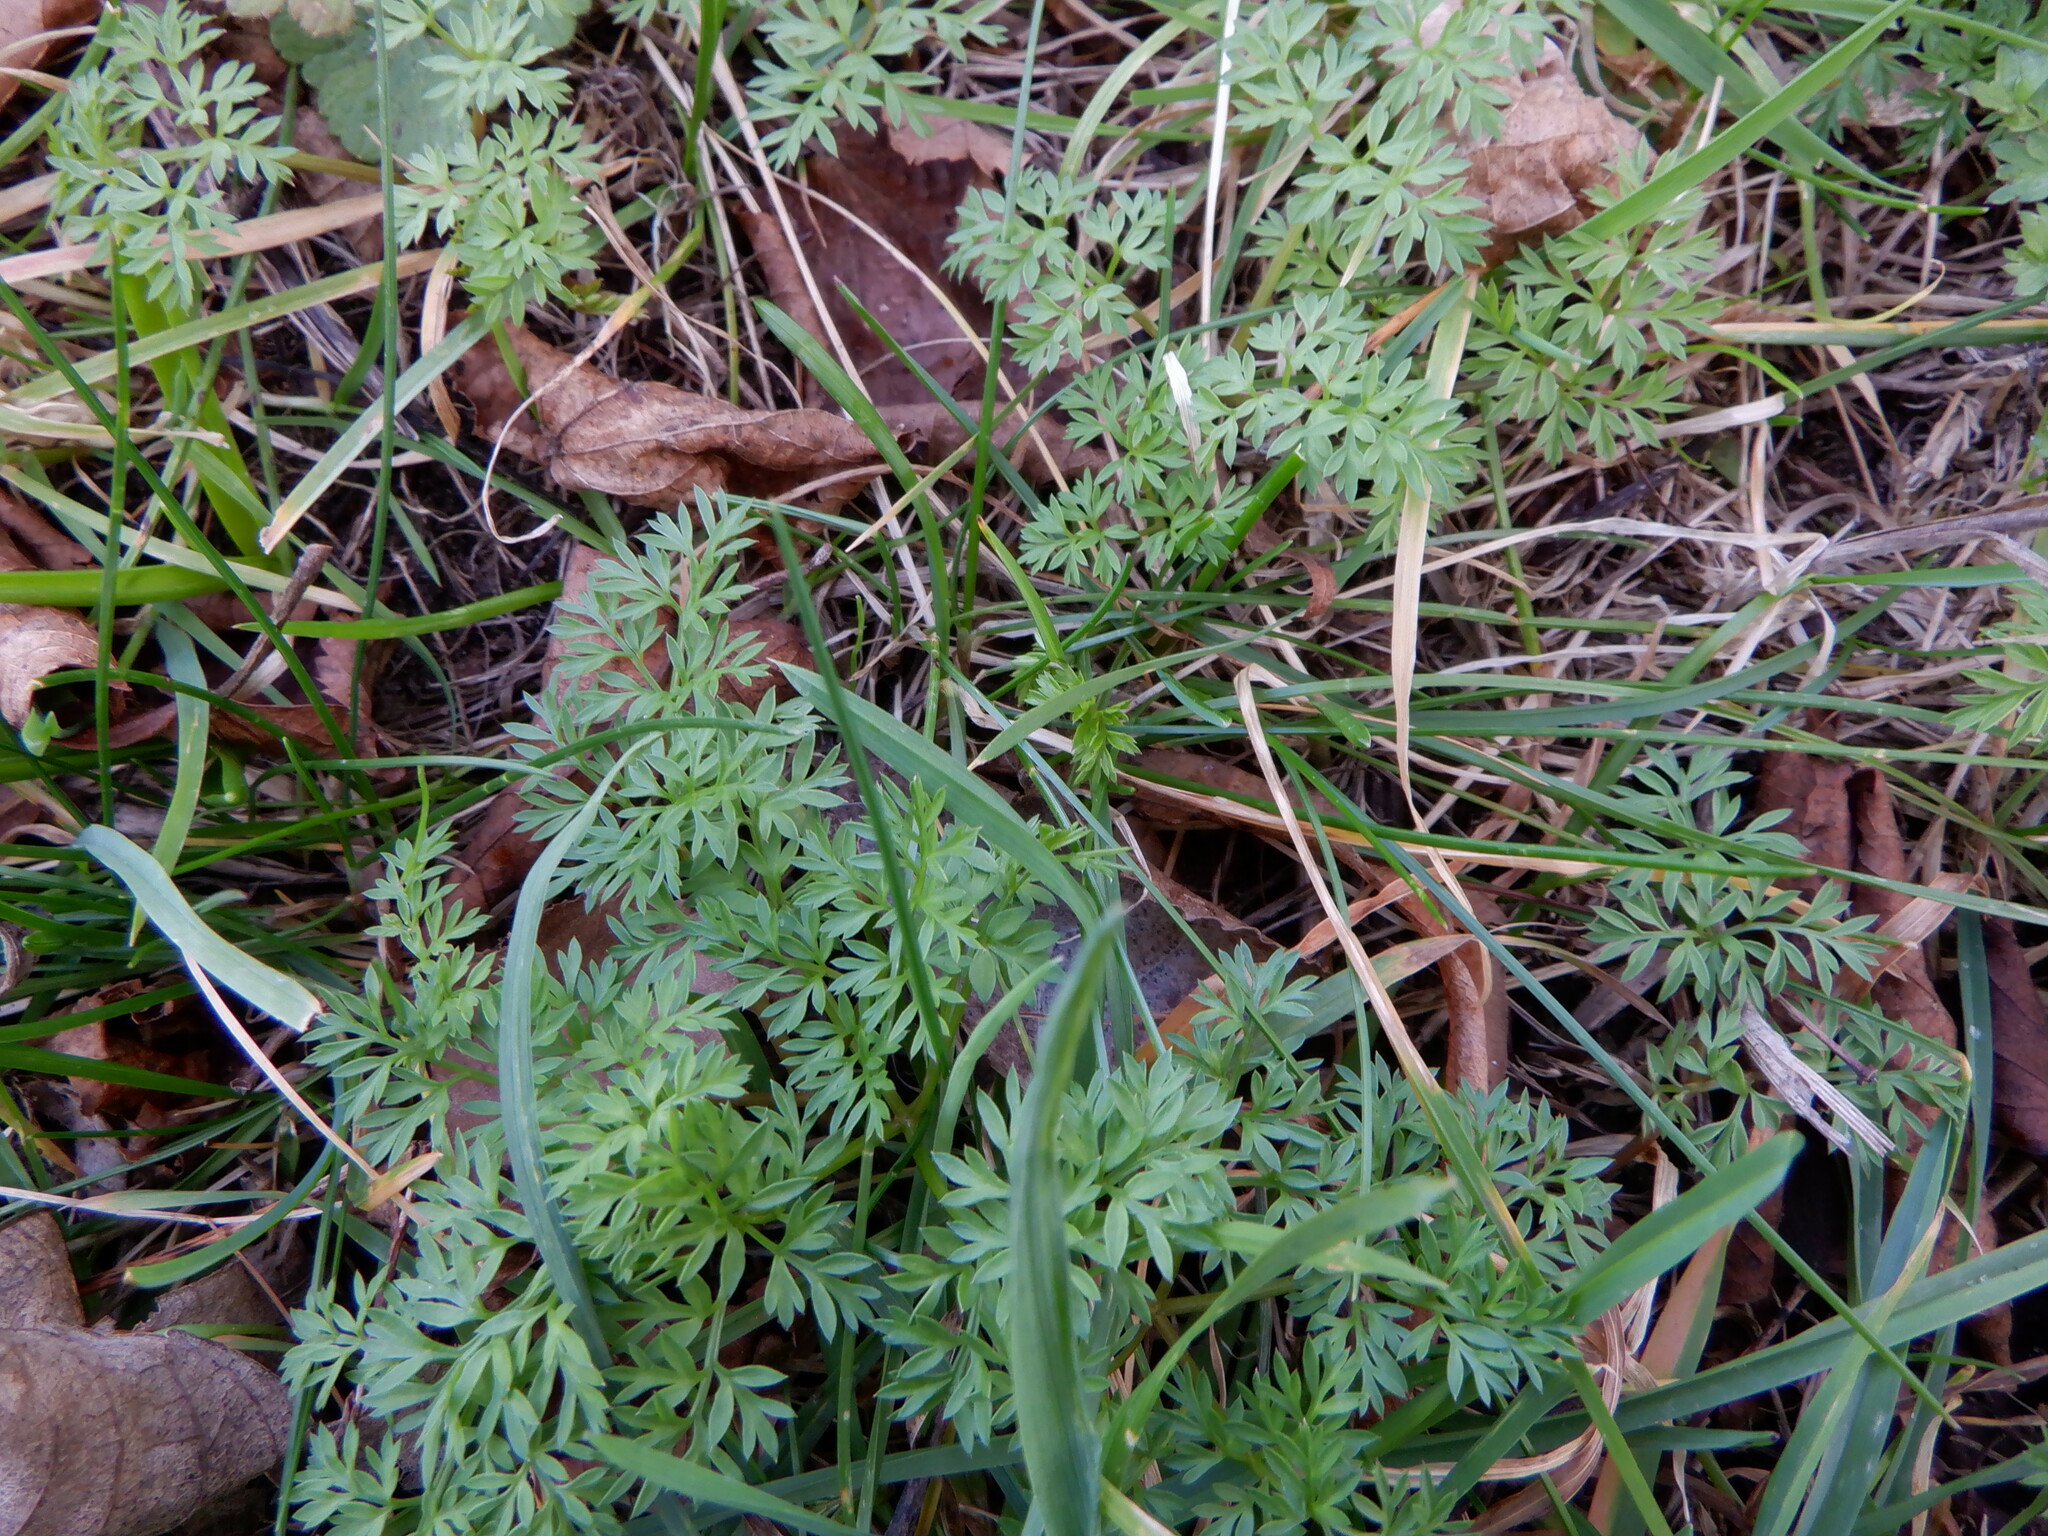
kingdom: Plantae
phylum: Tracheophyta
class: Magnoliopsida
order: Apiales
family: Apiaceae
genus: Conopodium
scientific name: Conopodium majus
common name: Pignut
